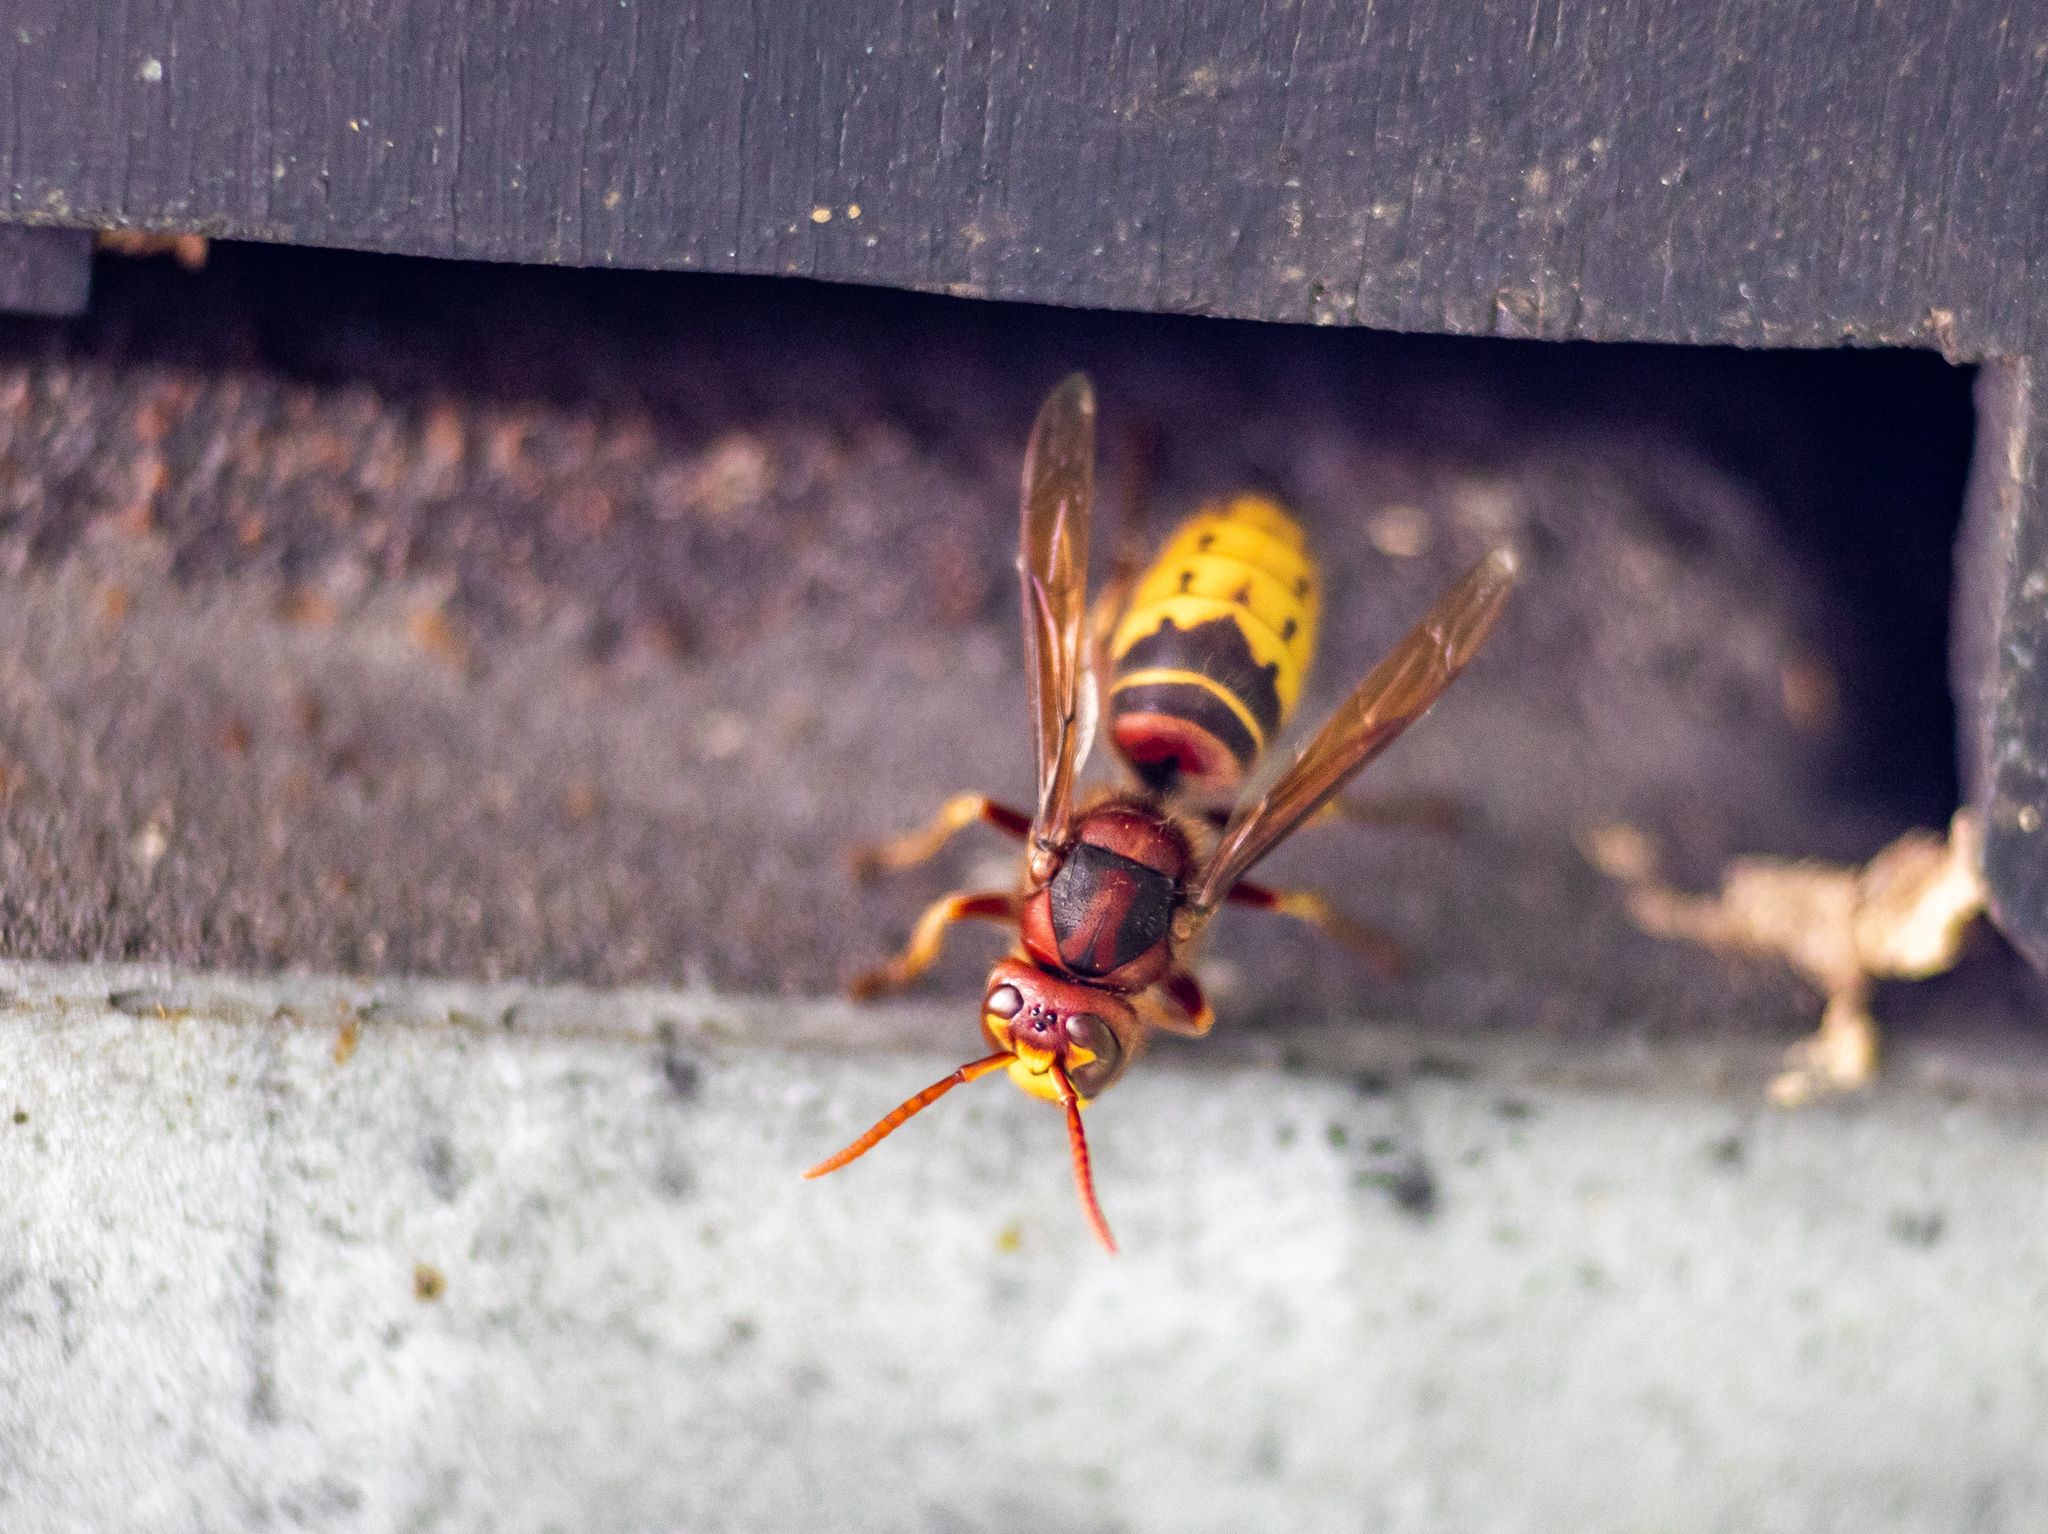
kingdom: Animalia
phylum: Arthropoda
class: Insecta
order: Hymenoptera
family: Vespidae
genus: Vespa
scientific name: Vespa crabro
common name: Hornet
